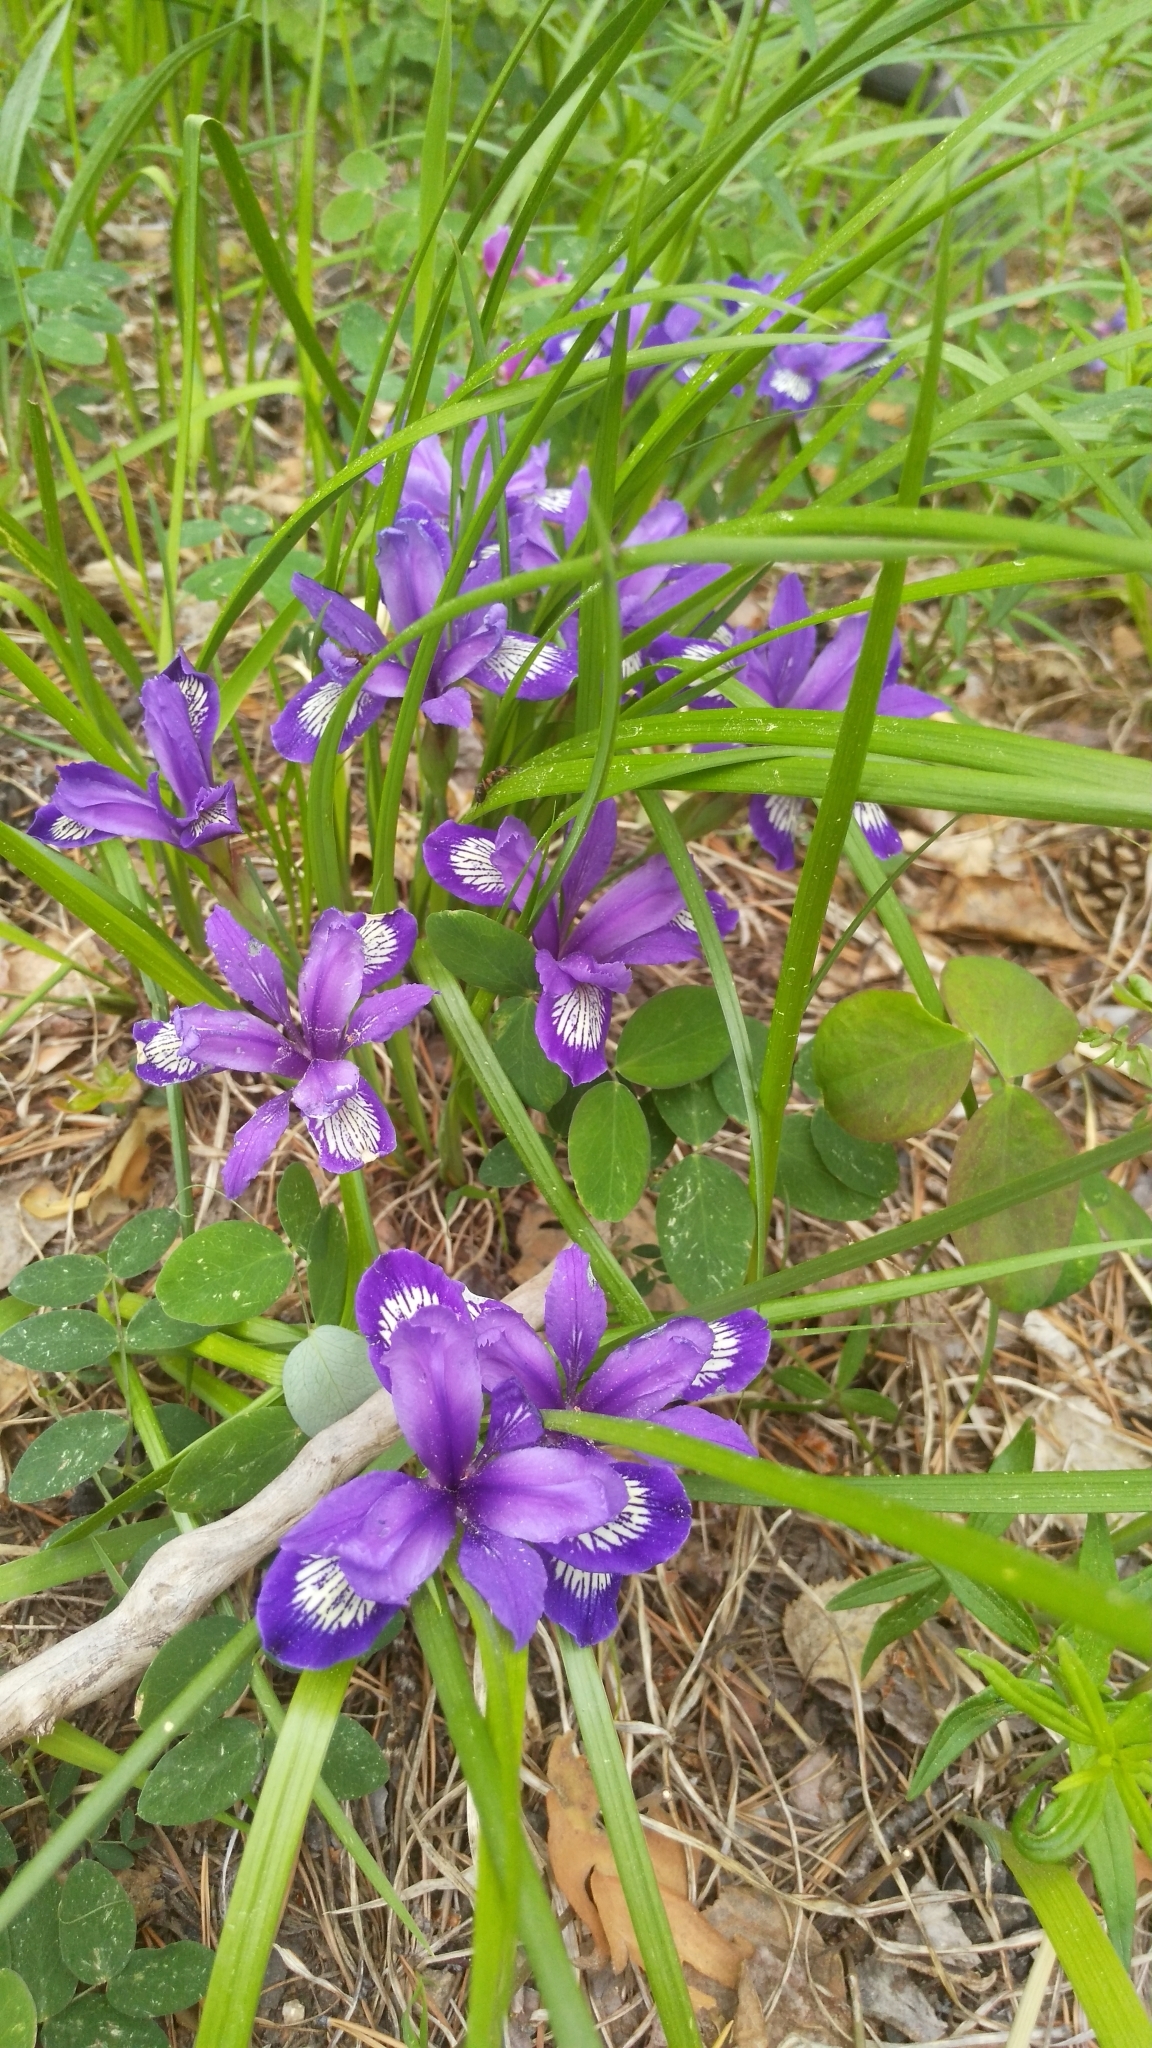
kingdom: Plantae
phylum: Tracheophyta
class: Liliopsida
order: Asparagales
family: Iridaceae
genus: Iris
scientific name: Iris ruthenica
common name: Purple-bract iris
